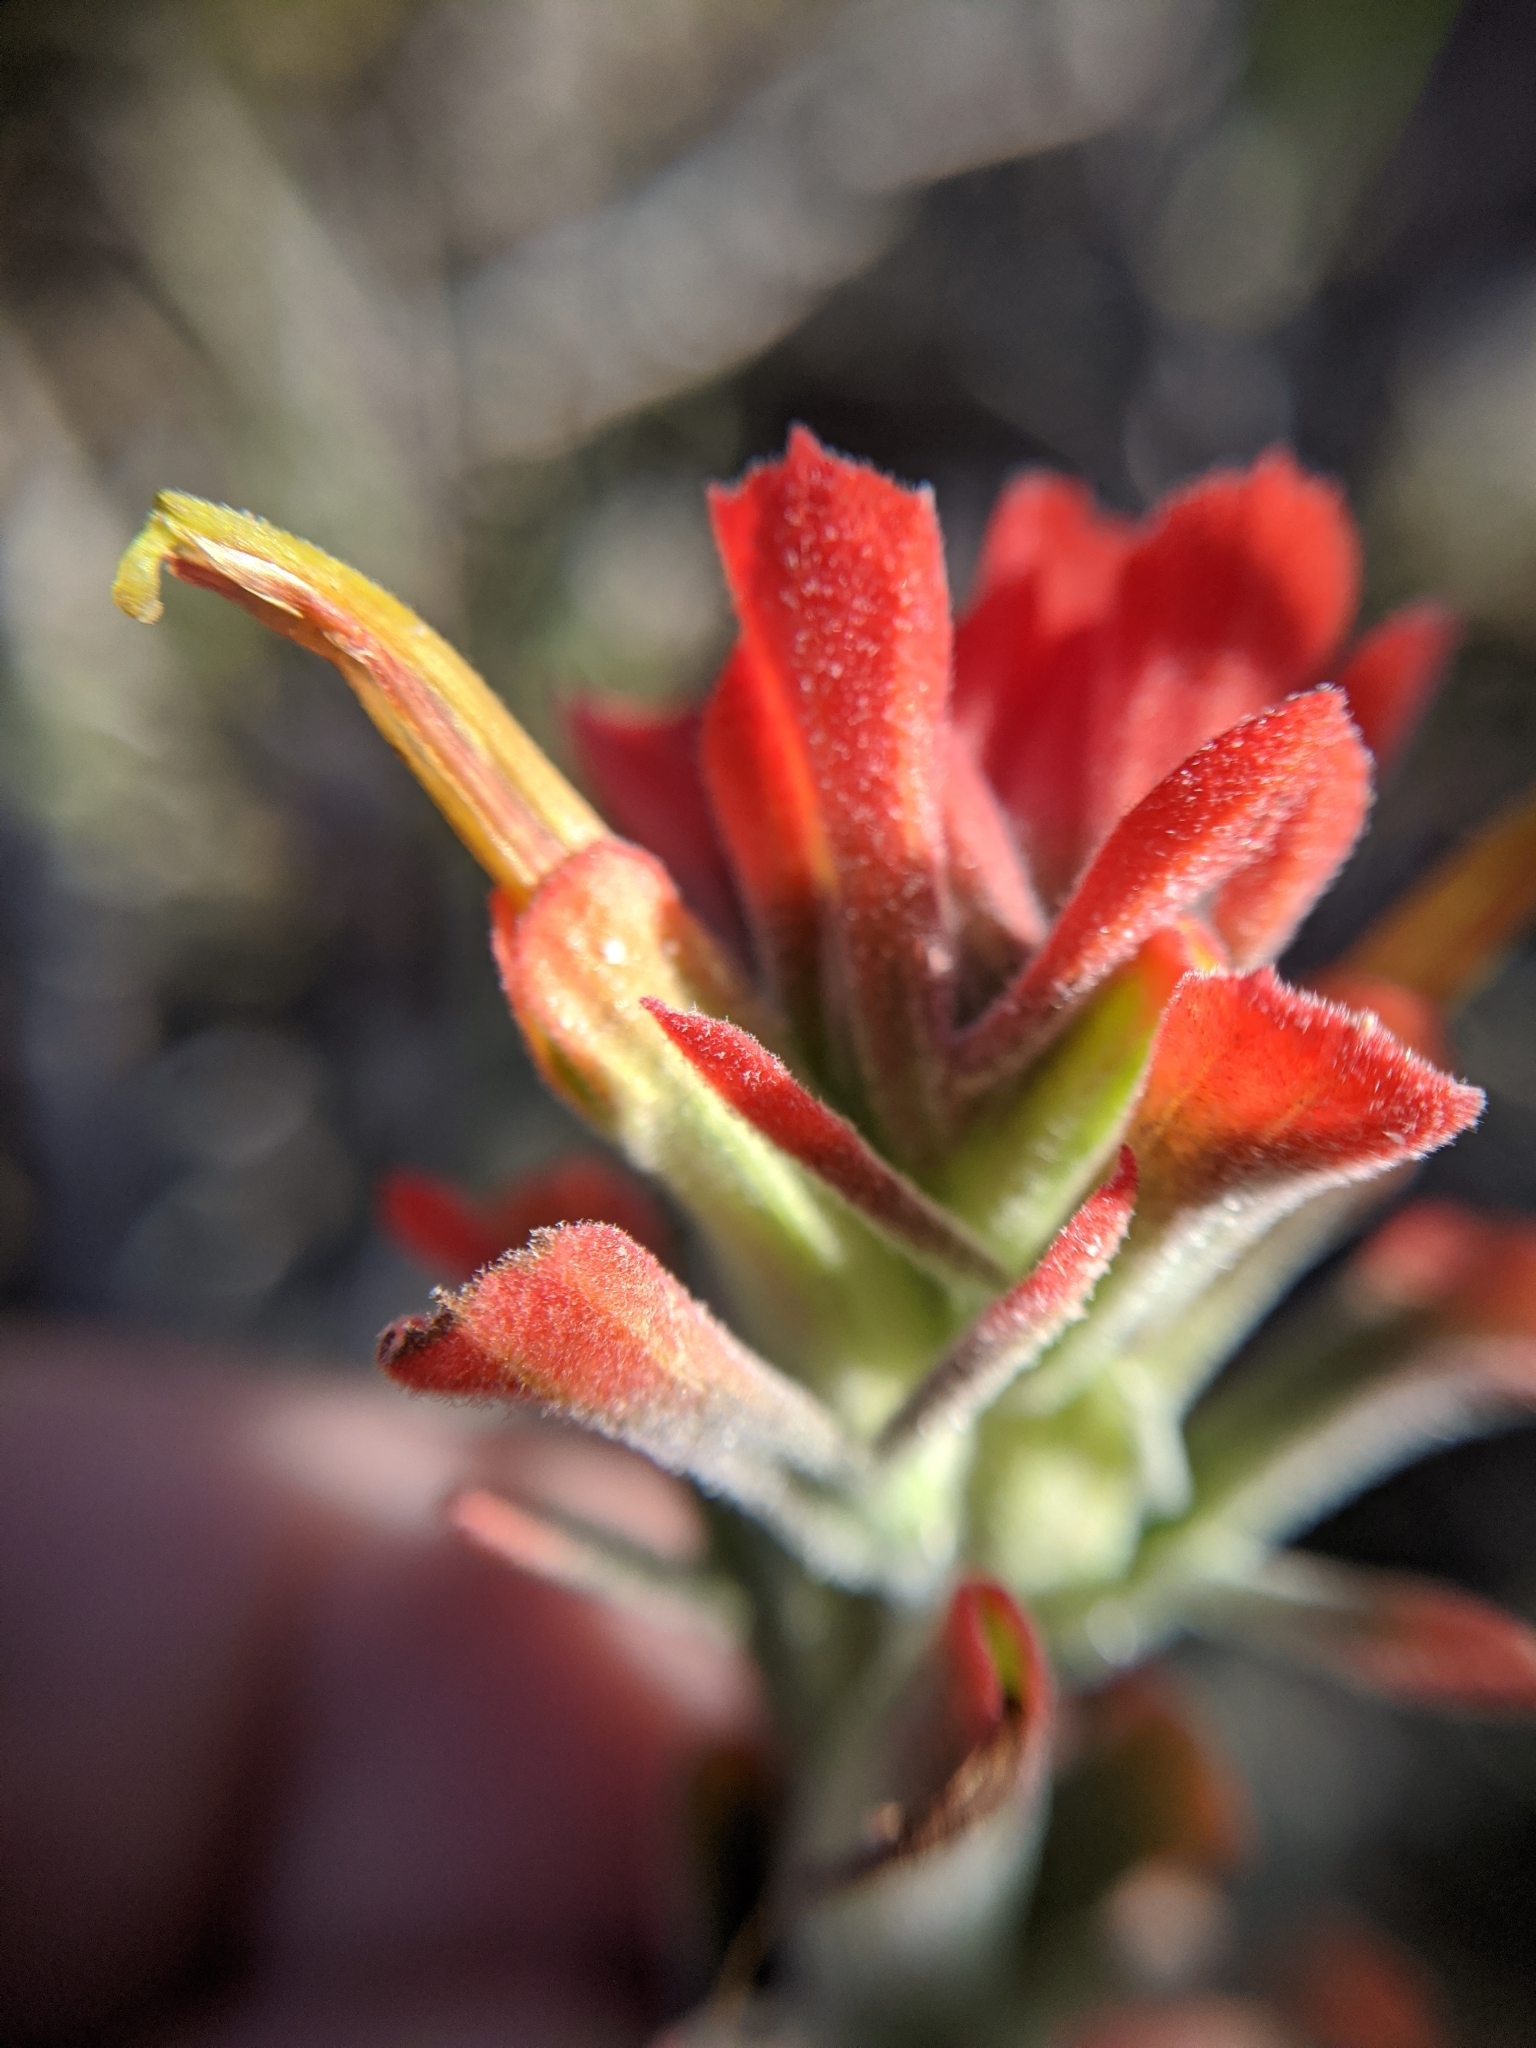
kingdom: Plantae
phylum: Tracheophyta
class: Magnoliopsida
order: Lamiales
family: Orobanchaceae
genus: Castilleja
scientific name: Castilleja foliolosa
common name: Woolly indian paintbrush
